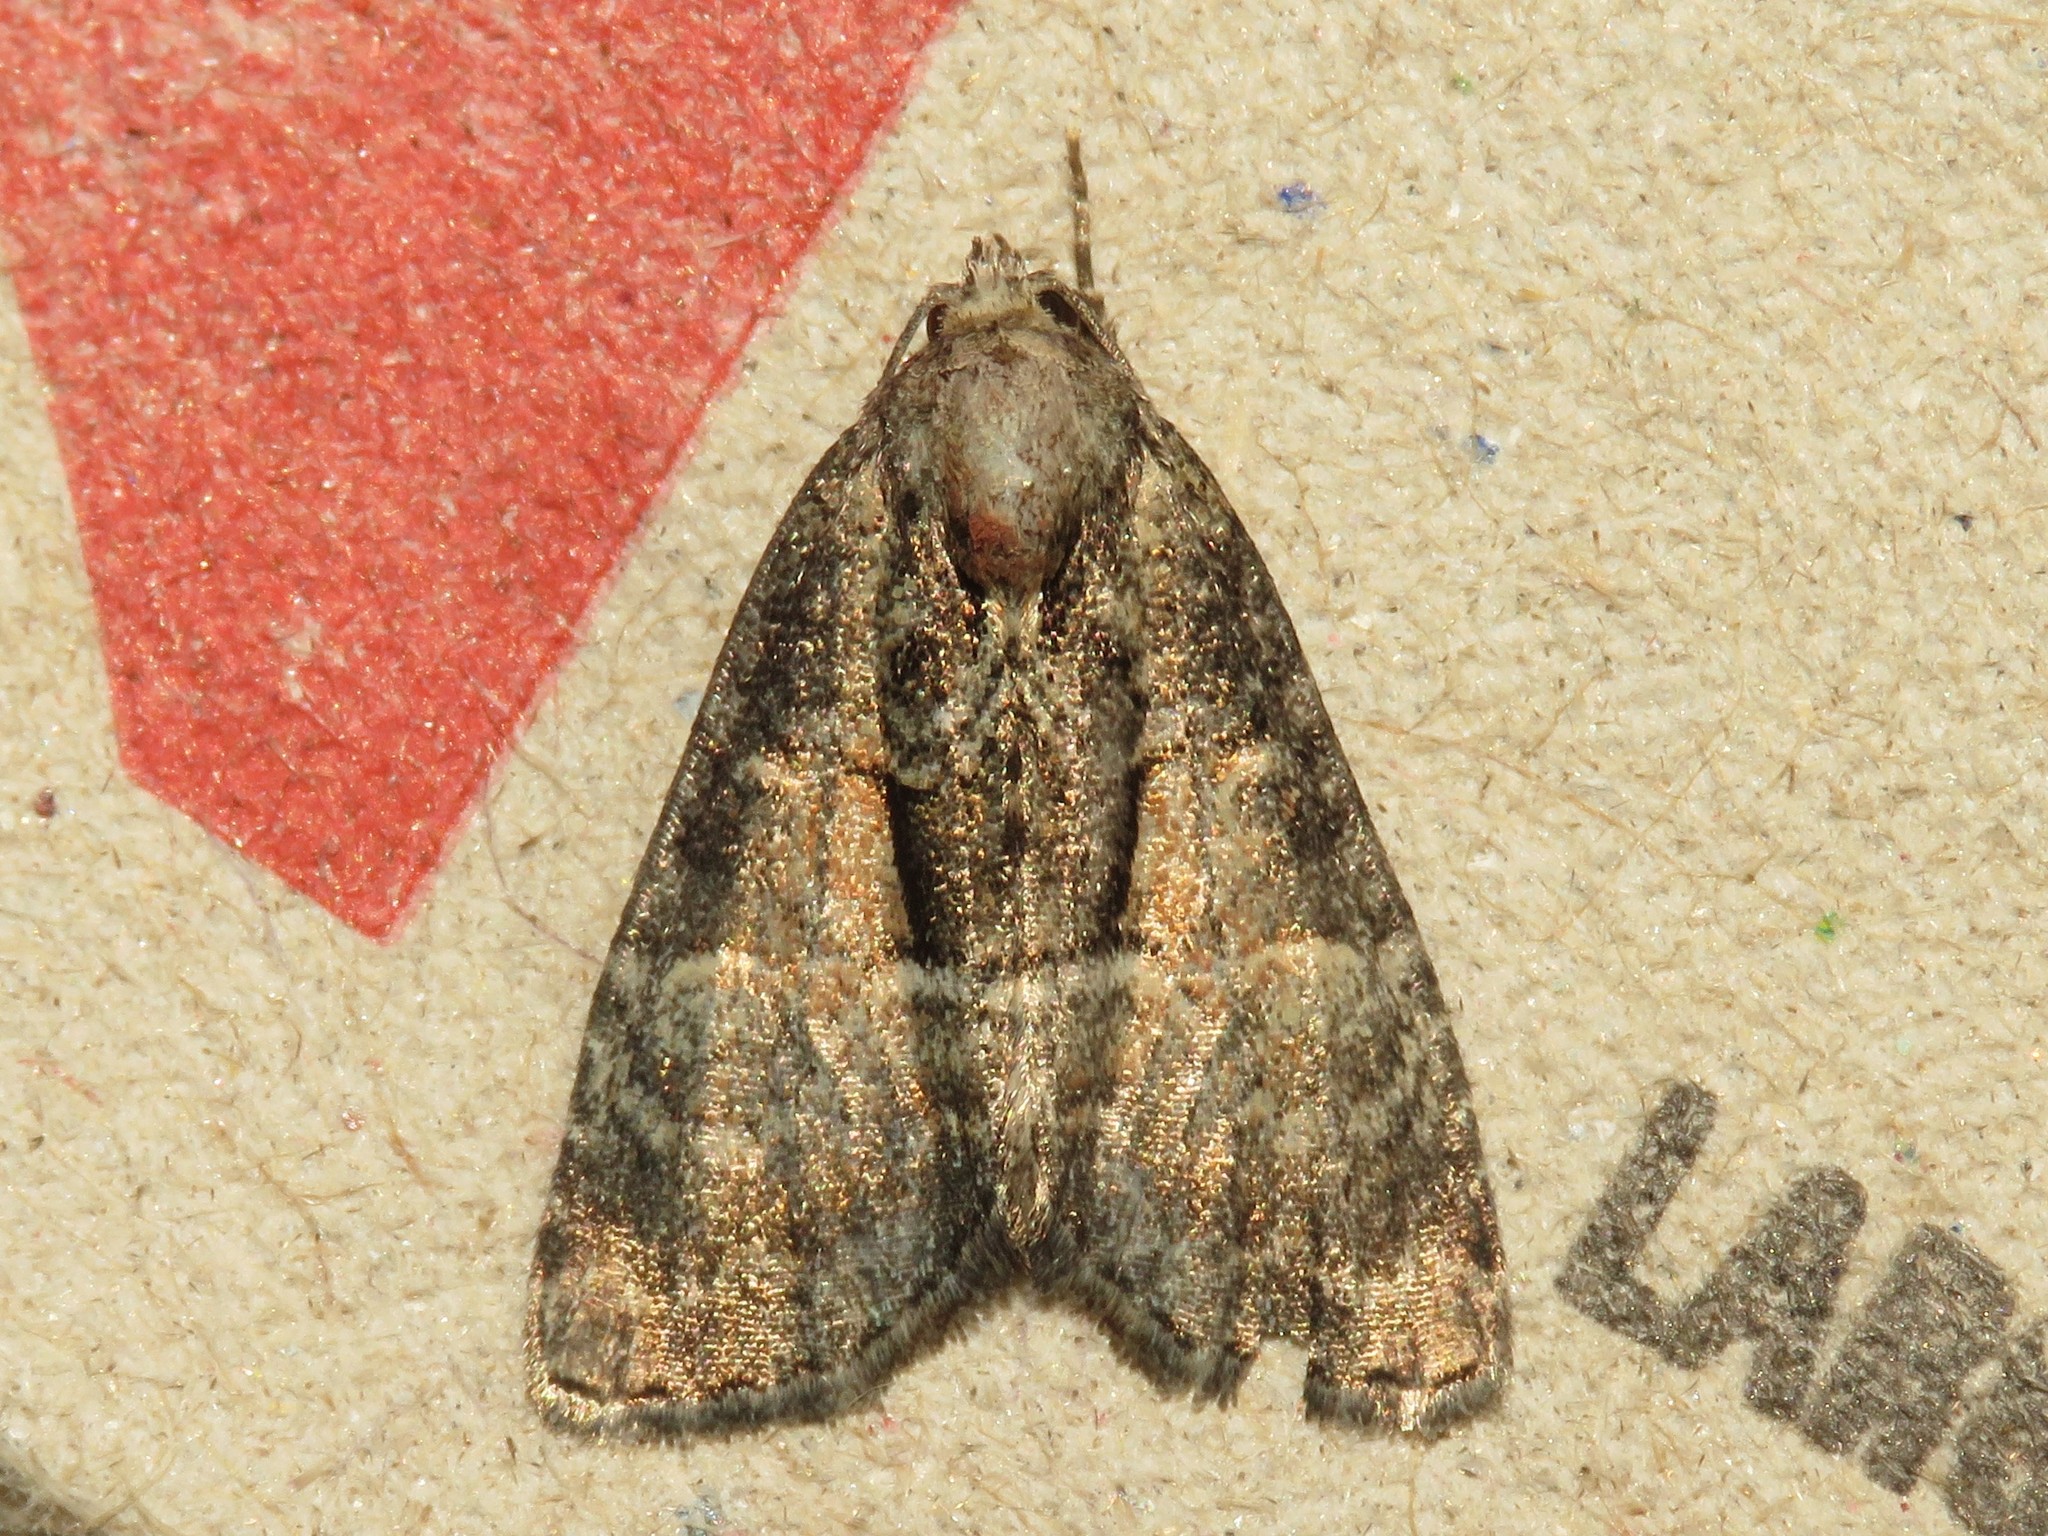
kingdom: Animalia
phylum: Arthropoda
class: Insecta
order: Lepidoptera
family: Noctuidae
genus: Neoligia
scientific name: Neoligia subjuncta
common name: Connected brocade
